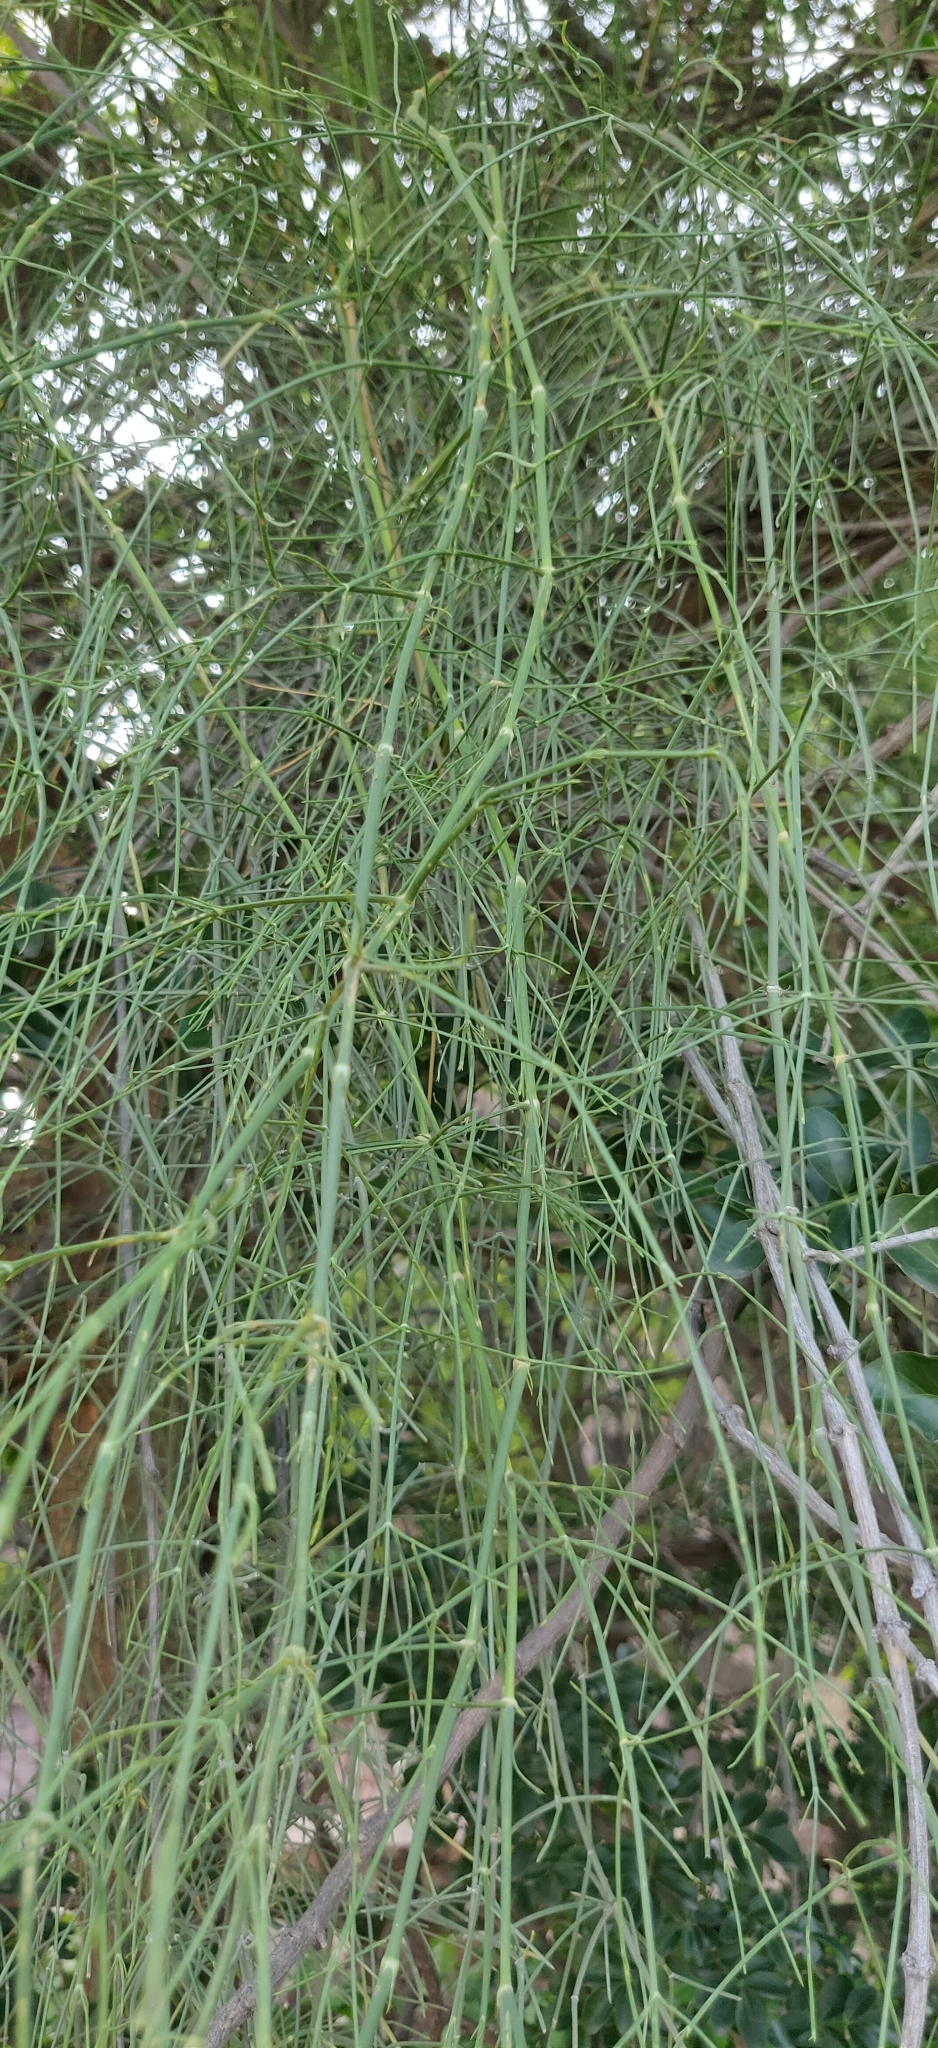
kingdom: Plantae
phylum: Tracheophyta
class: Gnetopsida
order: Ephedrales
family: Ephedraceae
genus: Ephedra
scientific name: Ephedra ciliata
